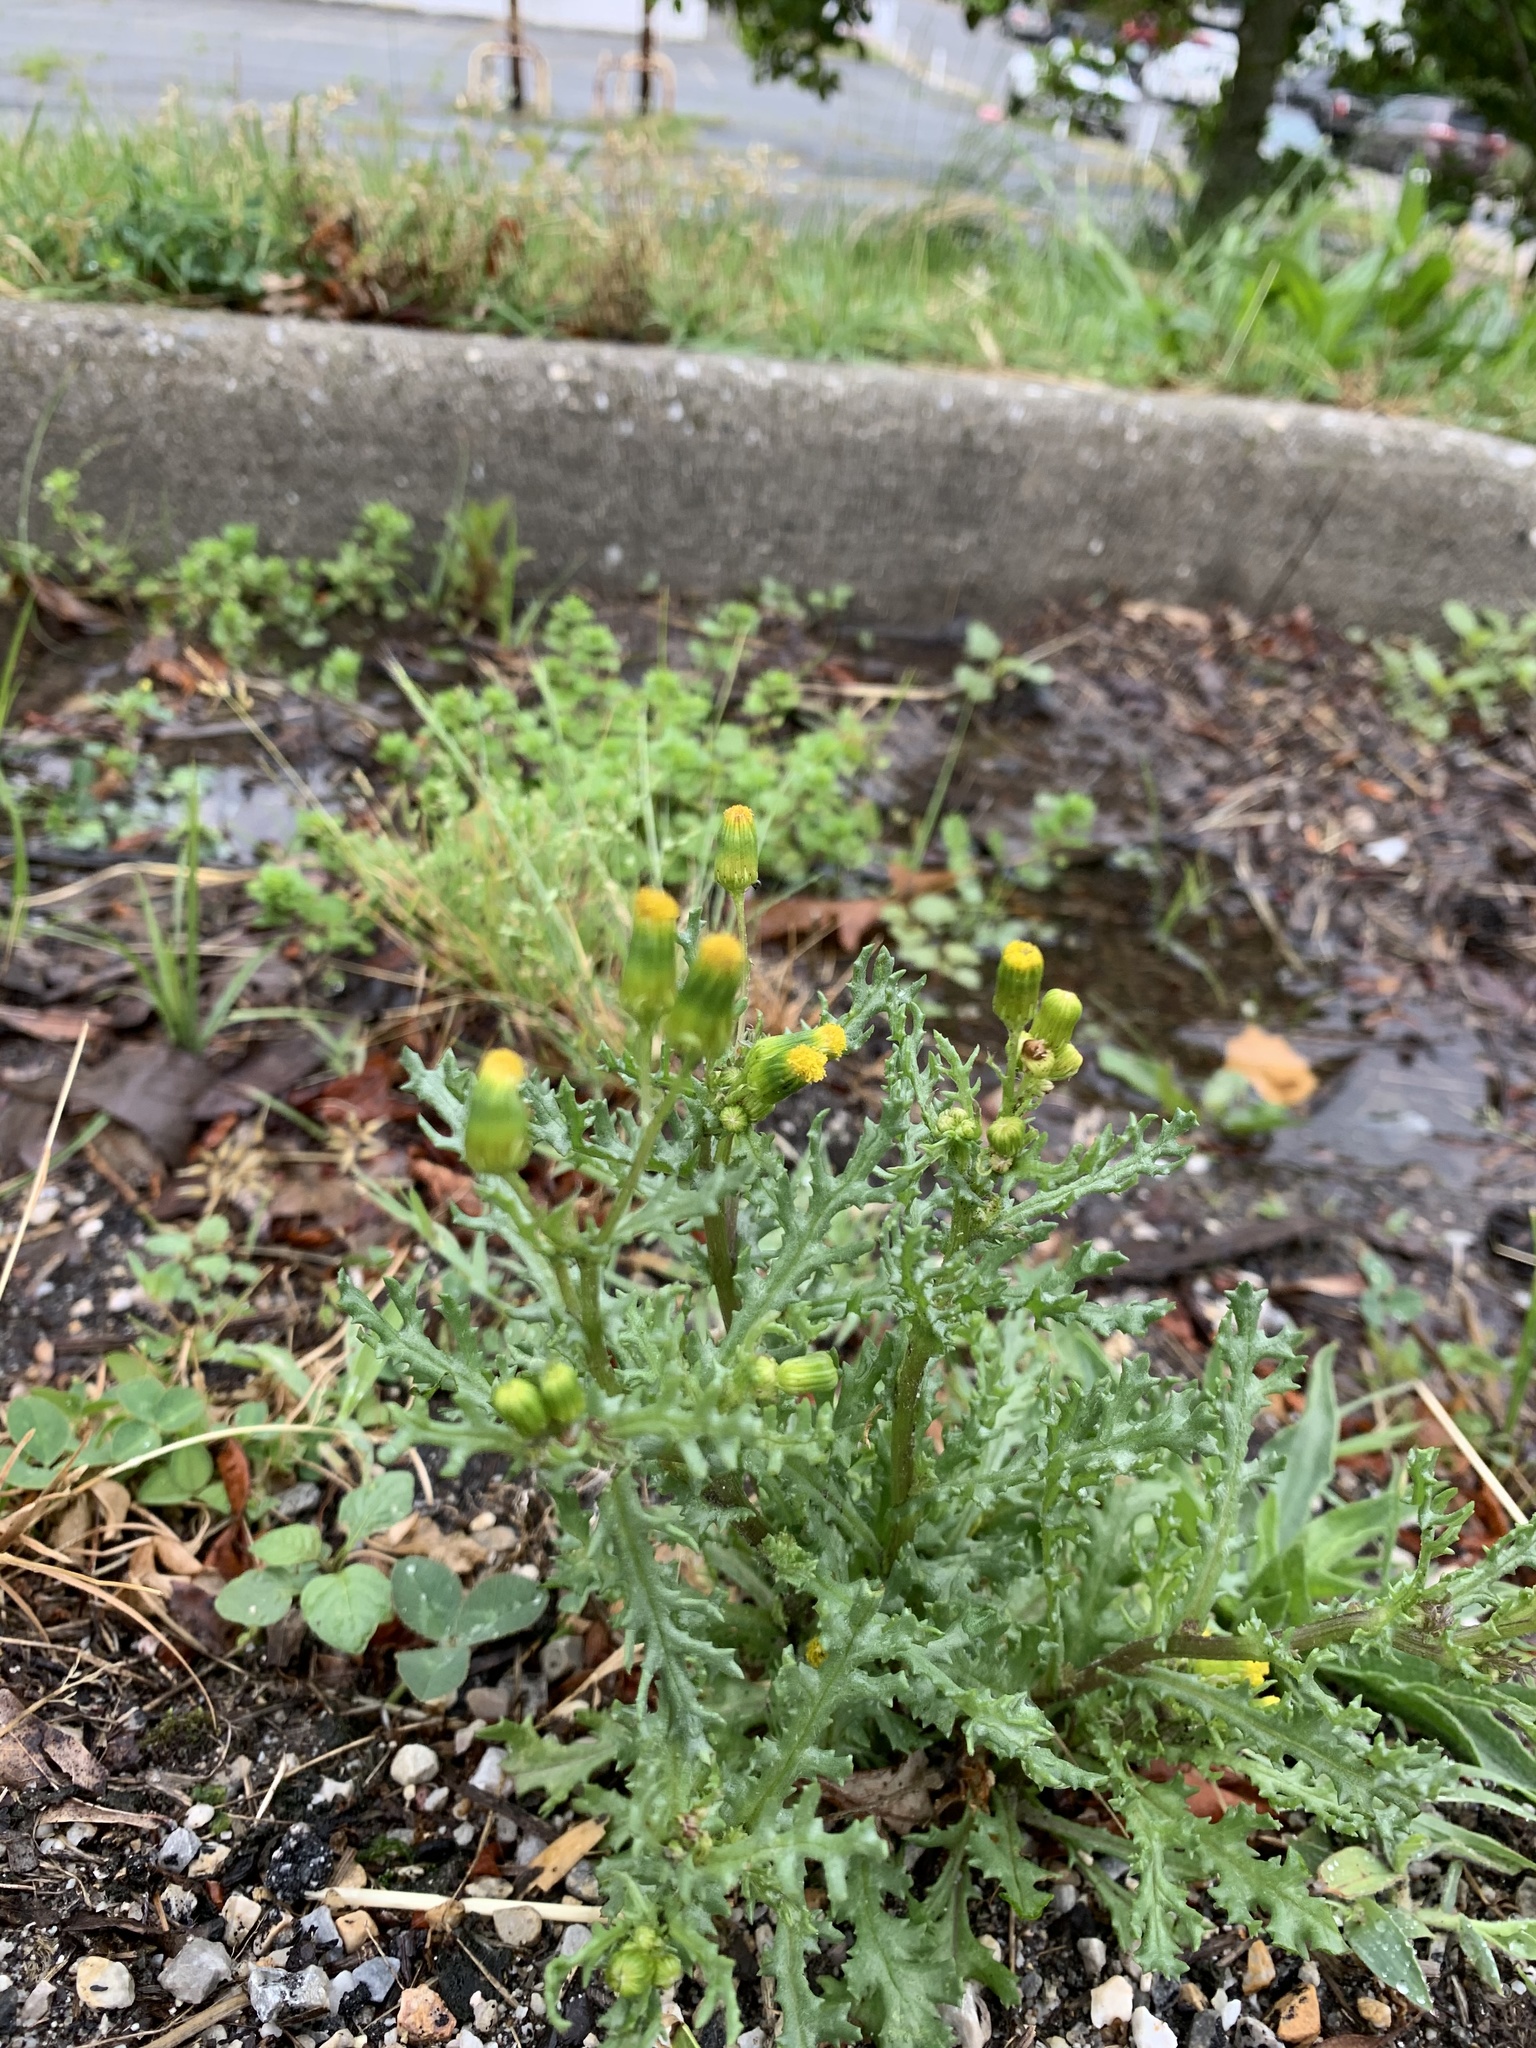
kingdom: Plantae
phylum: Tracheophyta
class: Magnoliopsida
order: Asterales
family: Asteraceae
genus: Senecio
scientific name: Senecio vulgaris
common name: Old-man-in-the-spring
